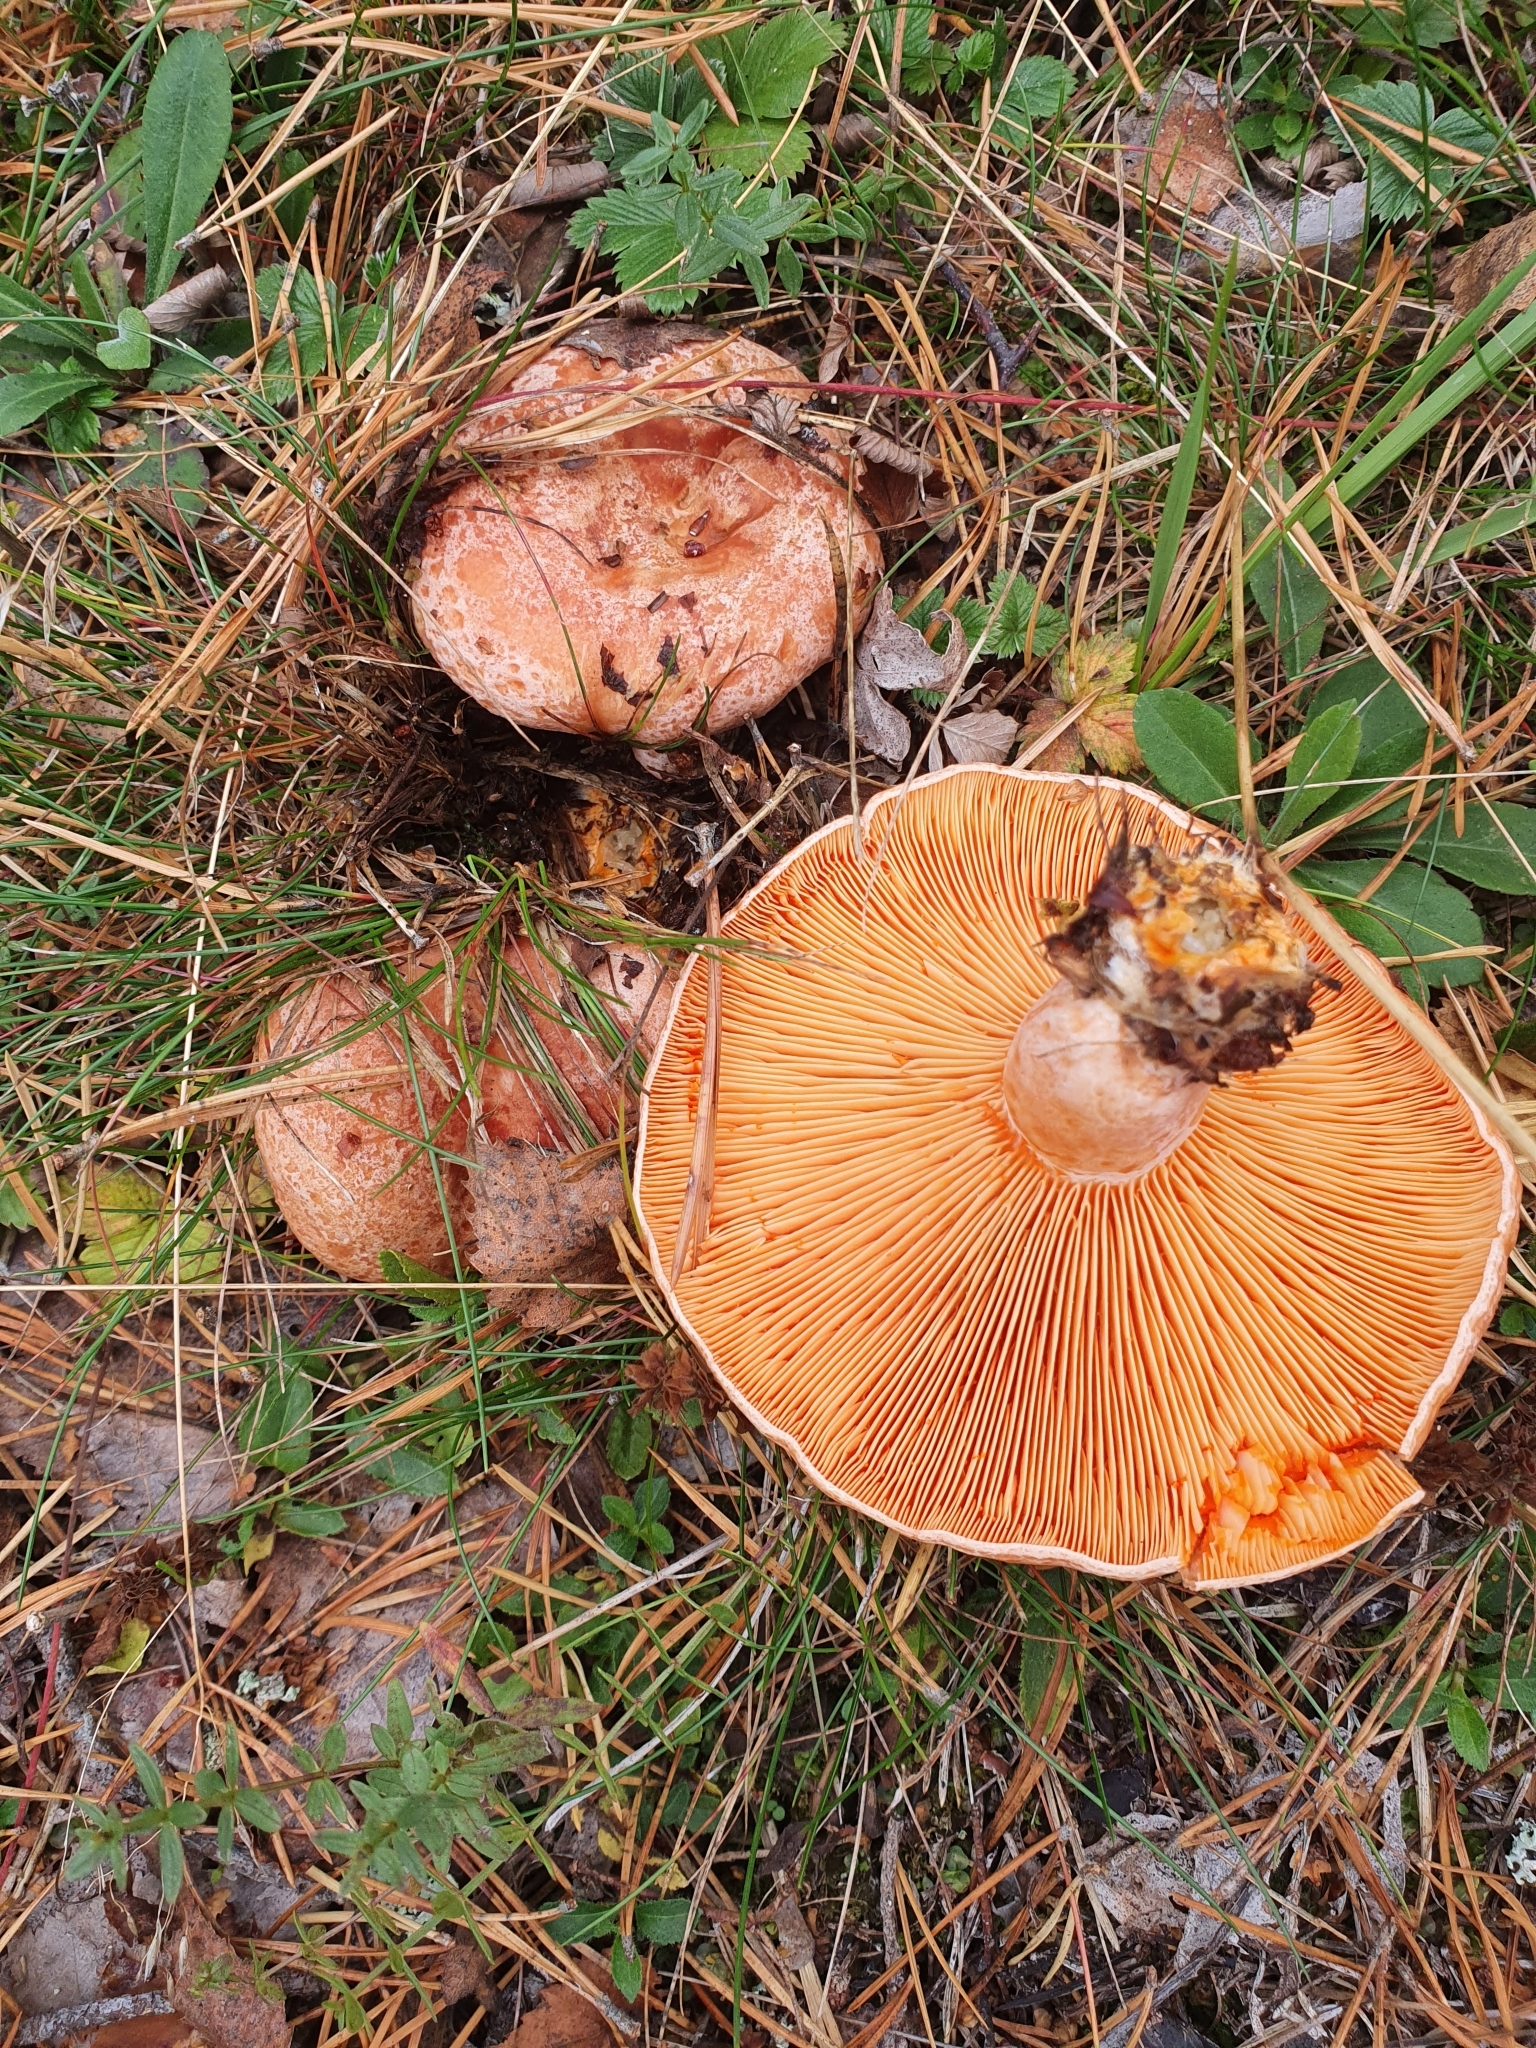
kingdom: Fungi
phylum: Basidiomycota
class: Agaricomycetes
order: Russulales
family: Russulaceae
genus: Lactarius
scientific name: Lactarius deliciosus
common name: Saffron milk-cap
